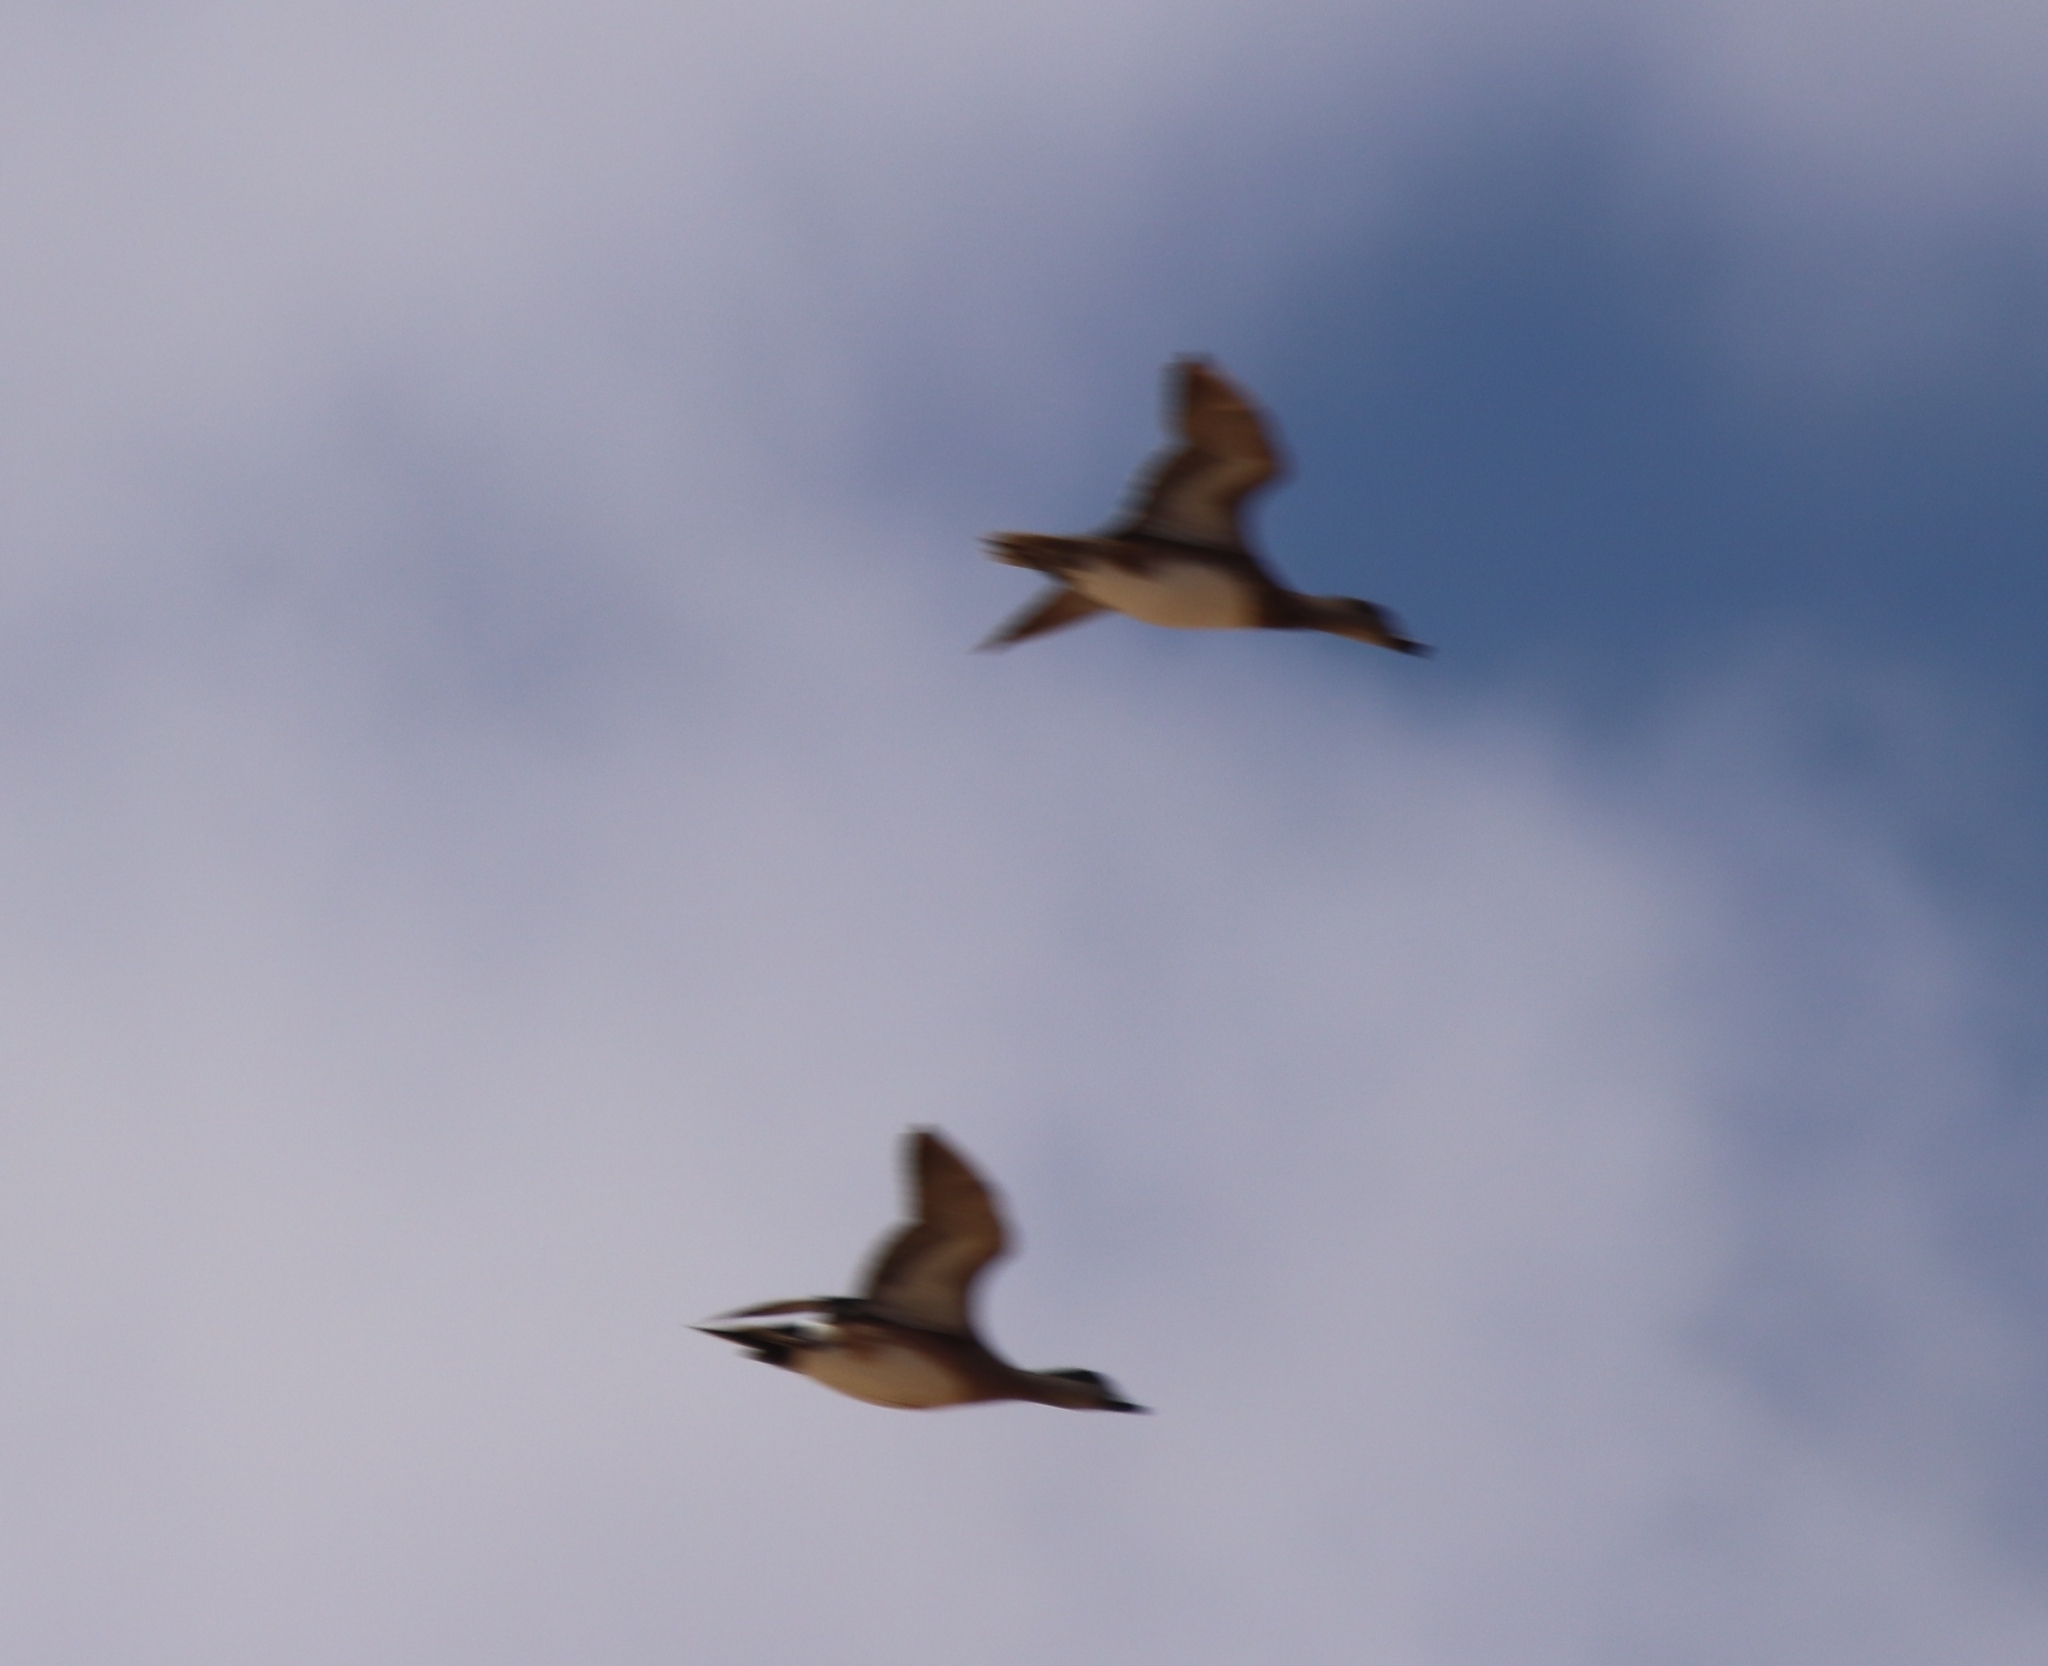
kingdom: Animalia
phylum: Chordata
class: Aves
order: Anseriformes
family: Anatidae
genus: Mareca
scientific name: Mareca americana
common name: American wigeon
